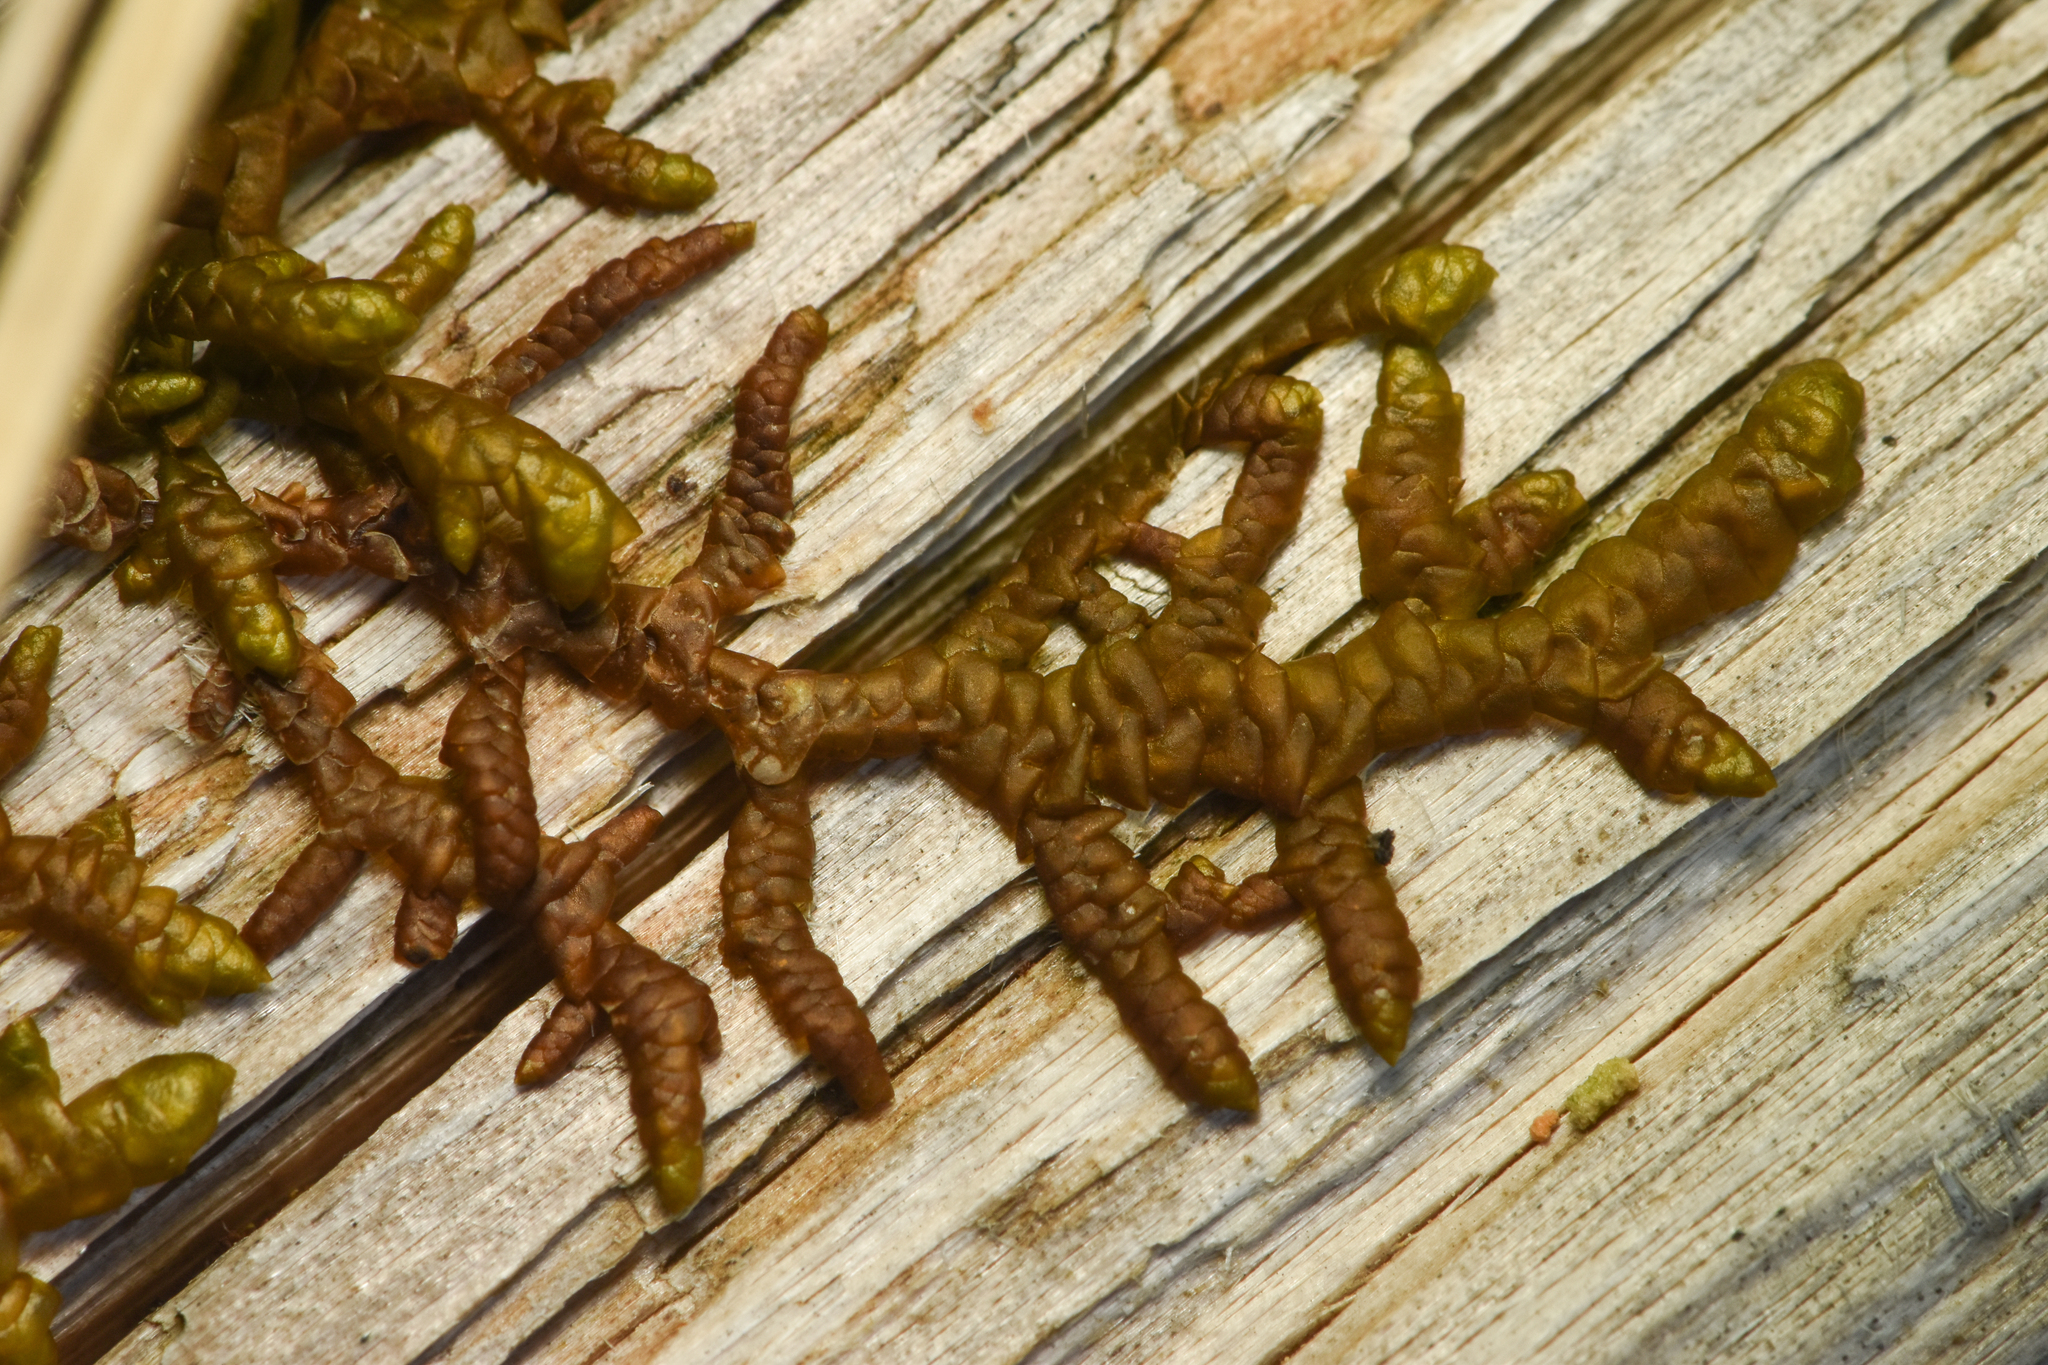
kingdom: Plantae
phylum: Marchantiophyta
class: Jungermanniopsida
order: Porellales
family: Porellaceae
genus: Porella
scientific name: Porella navicularis
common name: Tree ruffle liverwort
